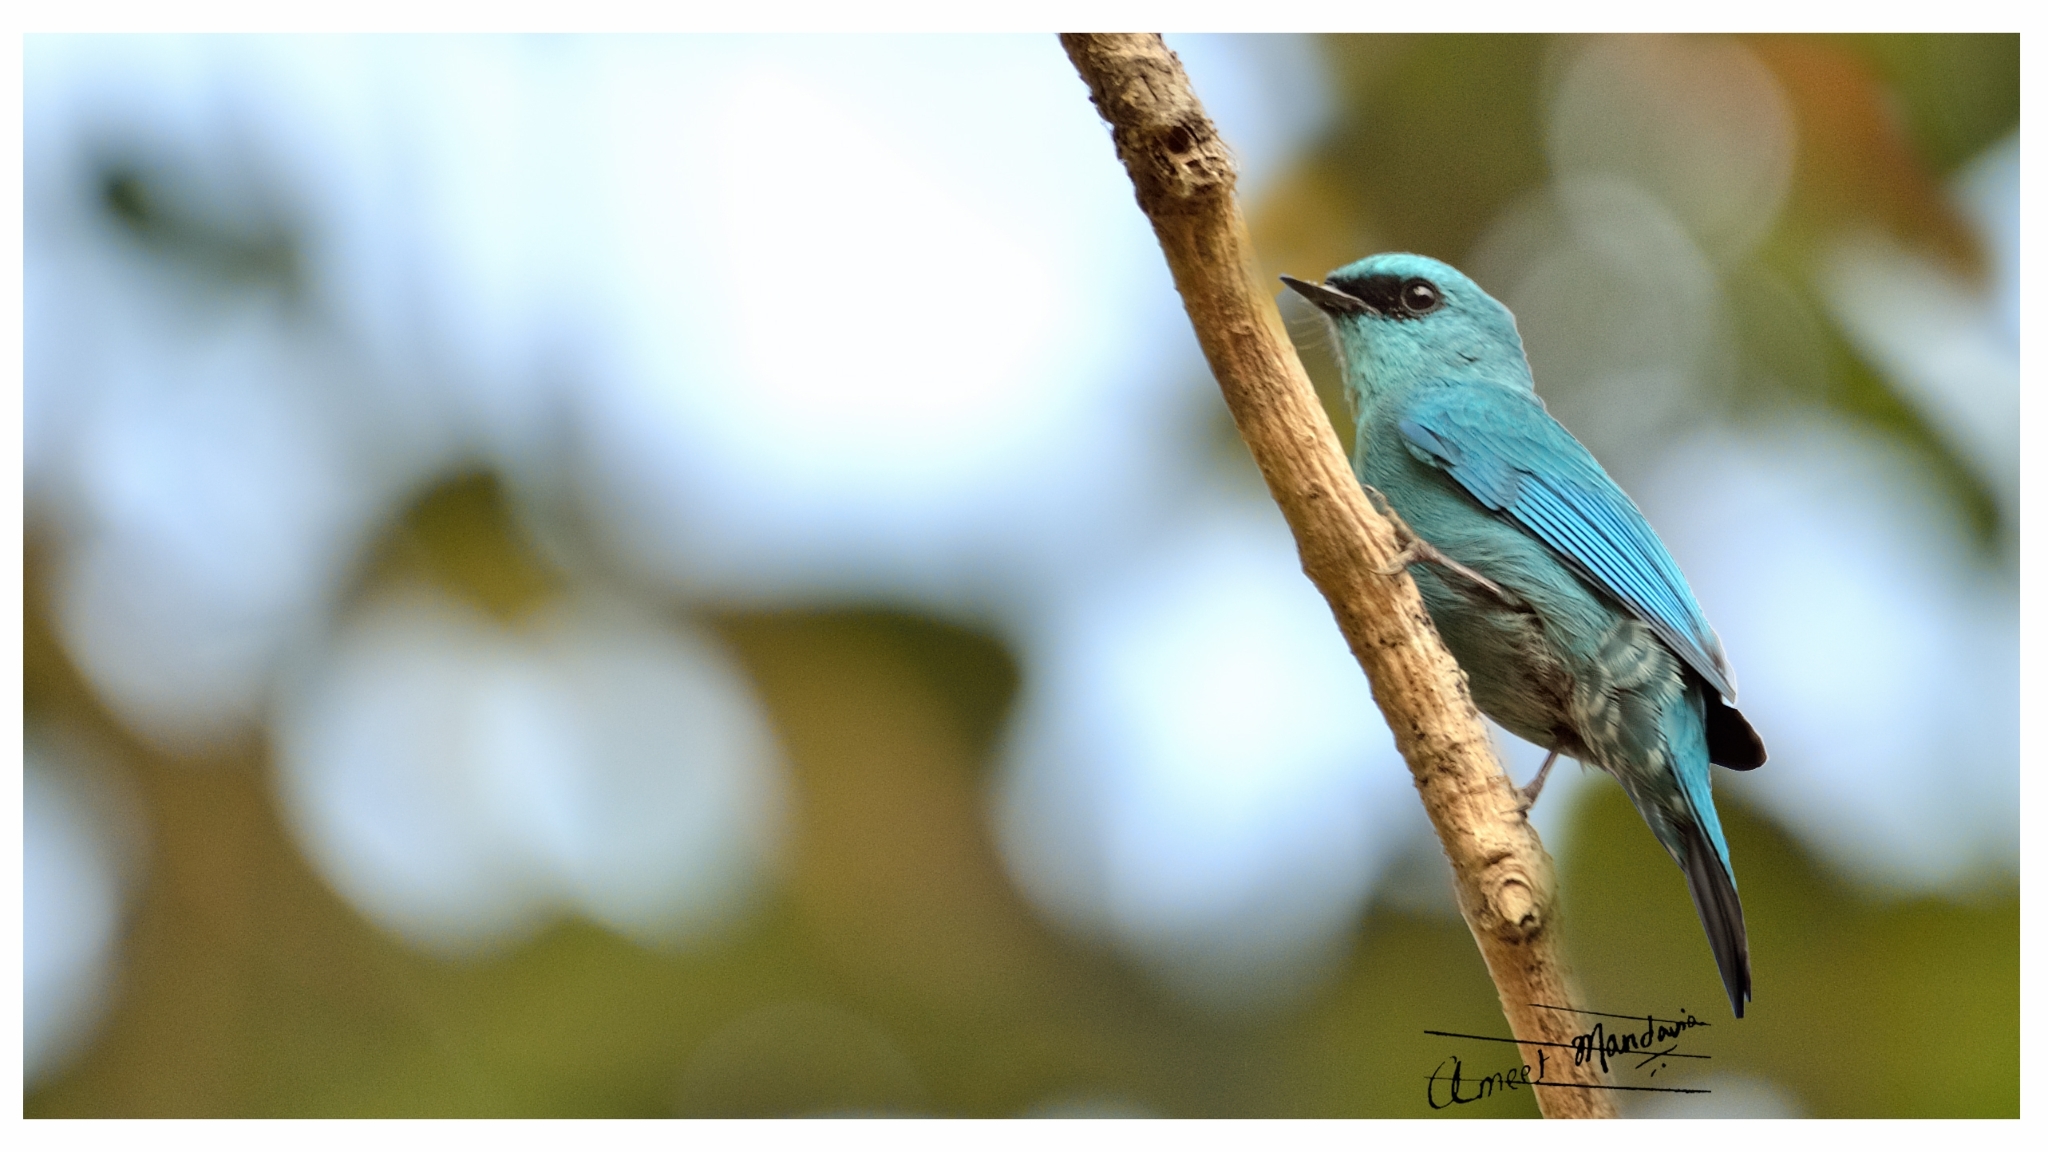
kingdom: Animalia
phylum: Chordata
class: Aves
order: Passeriformes
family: Muscicapidae
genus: Eumyias
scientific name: Eumyias thalassinus
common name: Verditer flycatcher
